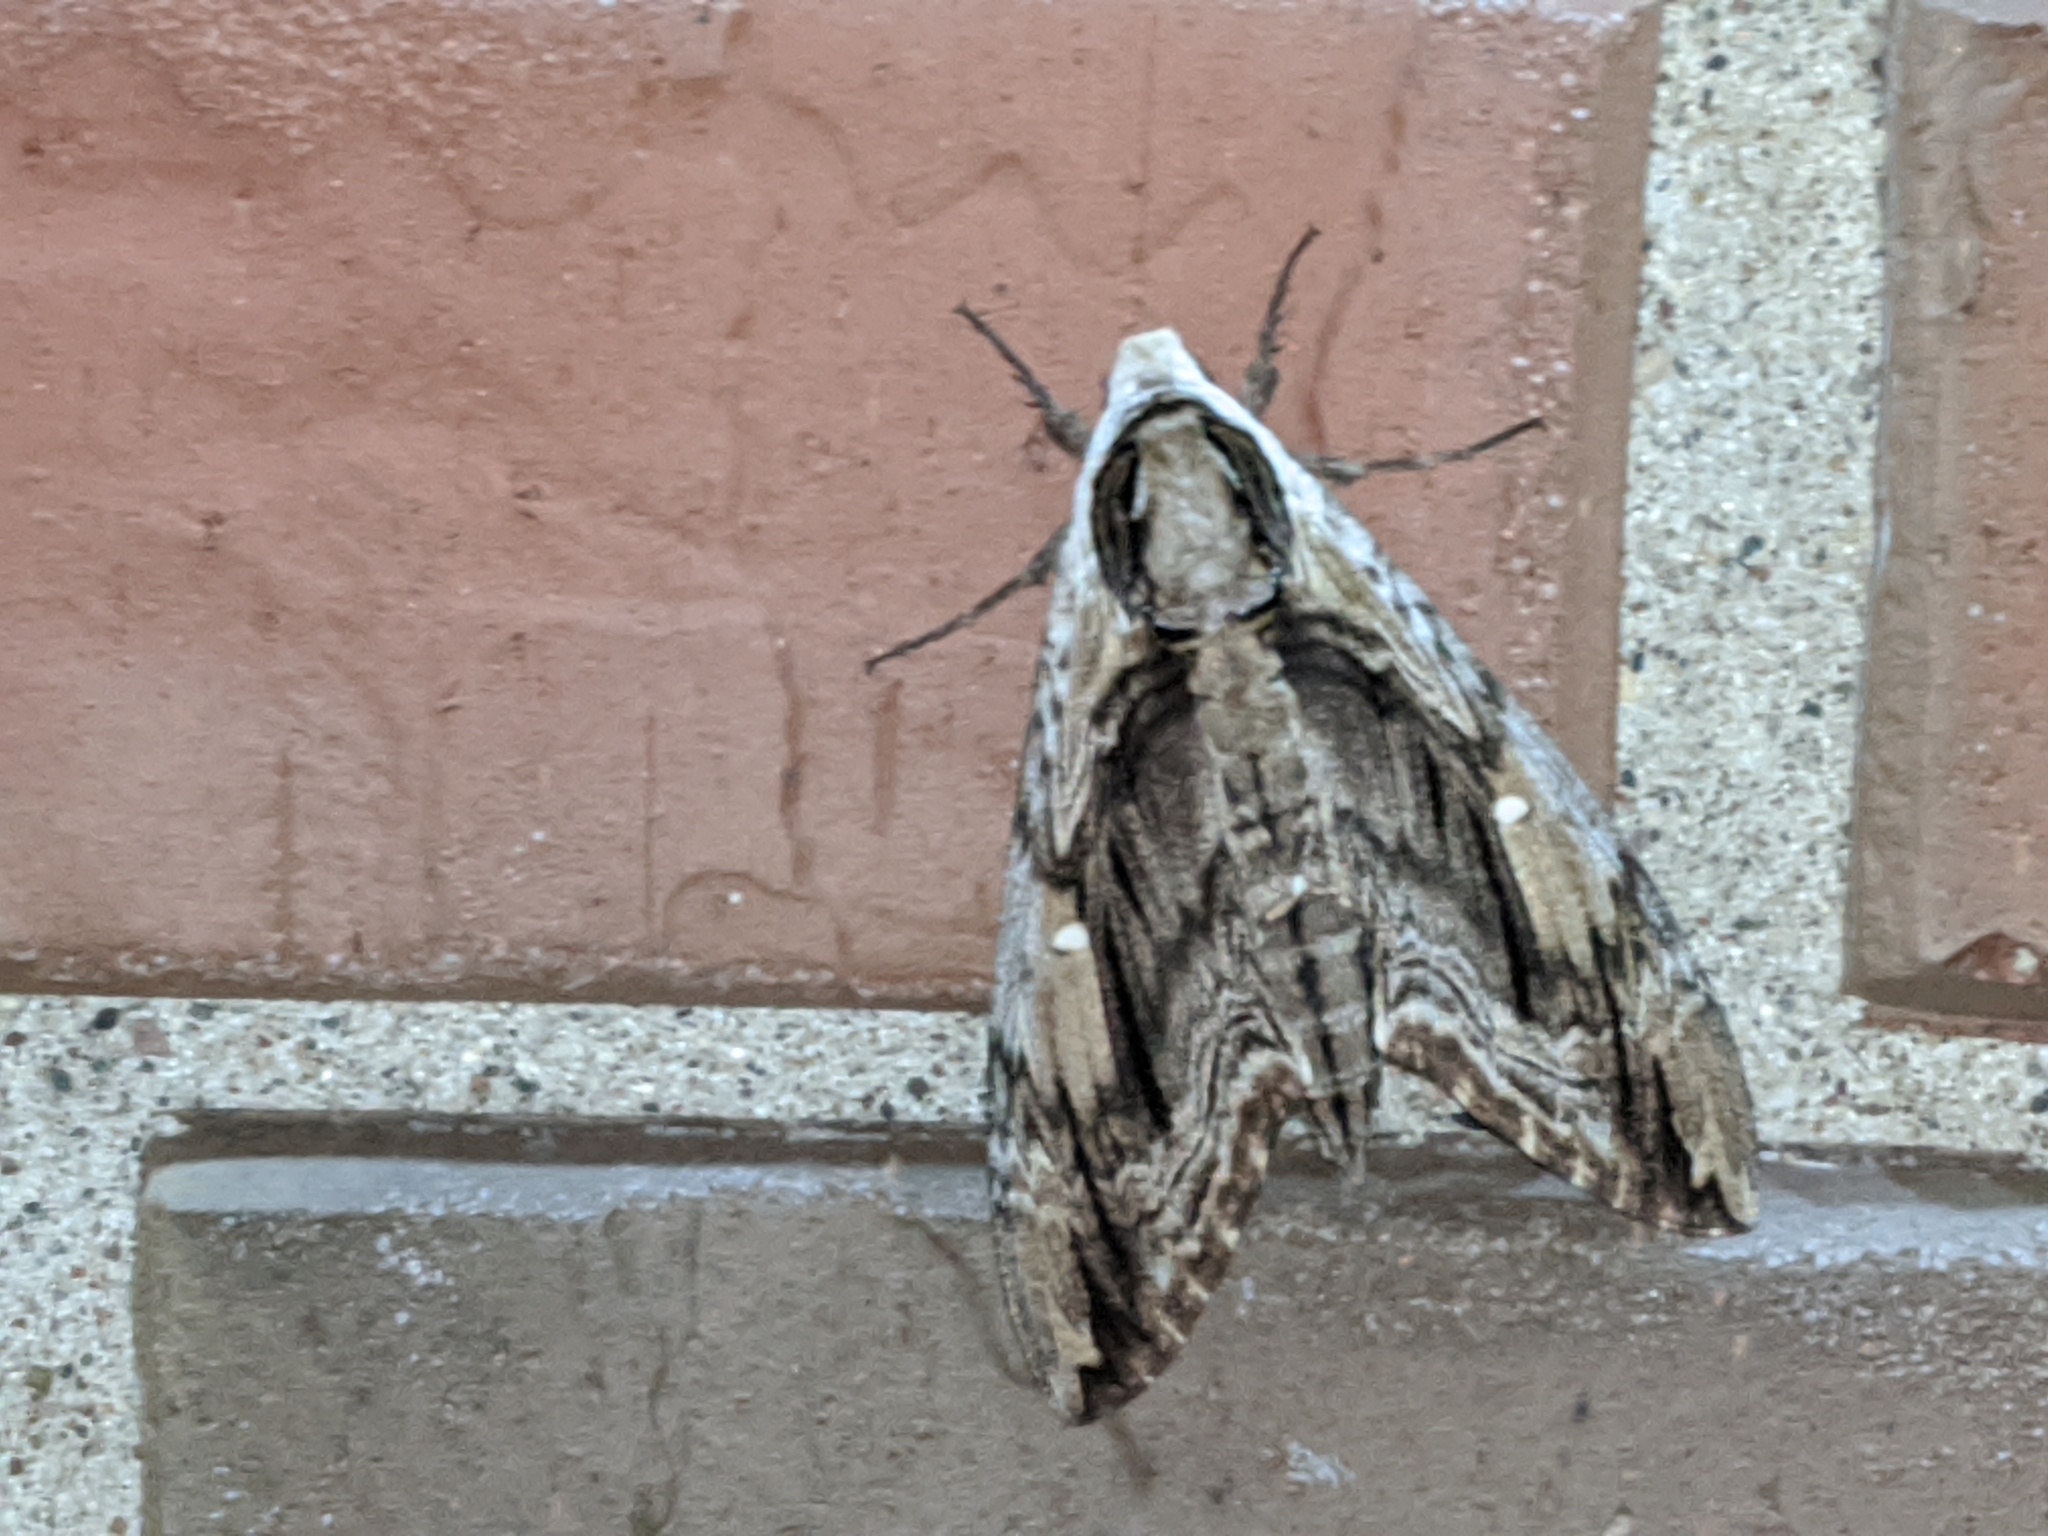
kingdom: Animalia
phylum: Arthropoda
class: Insecta
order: Lepidoptera
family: Sphingidae
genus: Ceratomia
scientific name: Ceratomia amyntor
